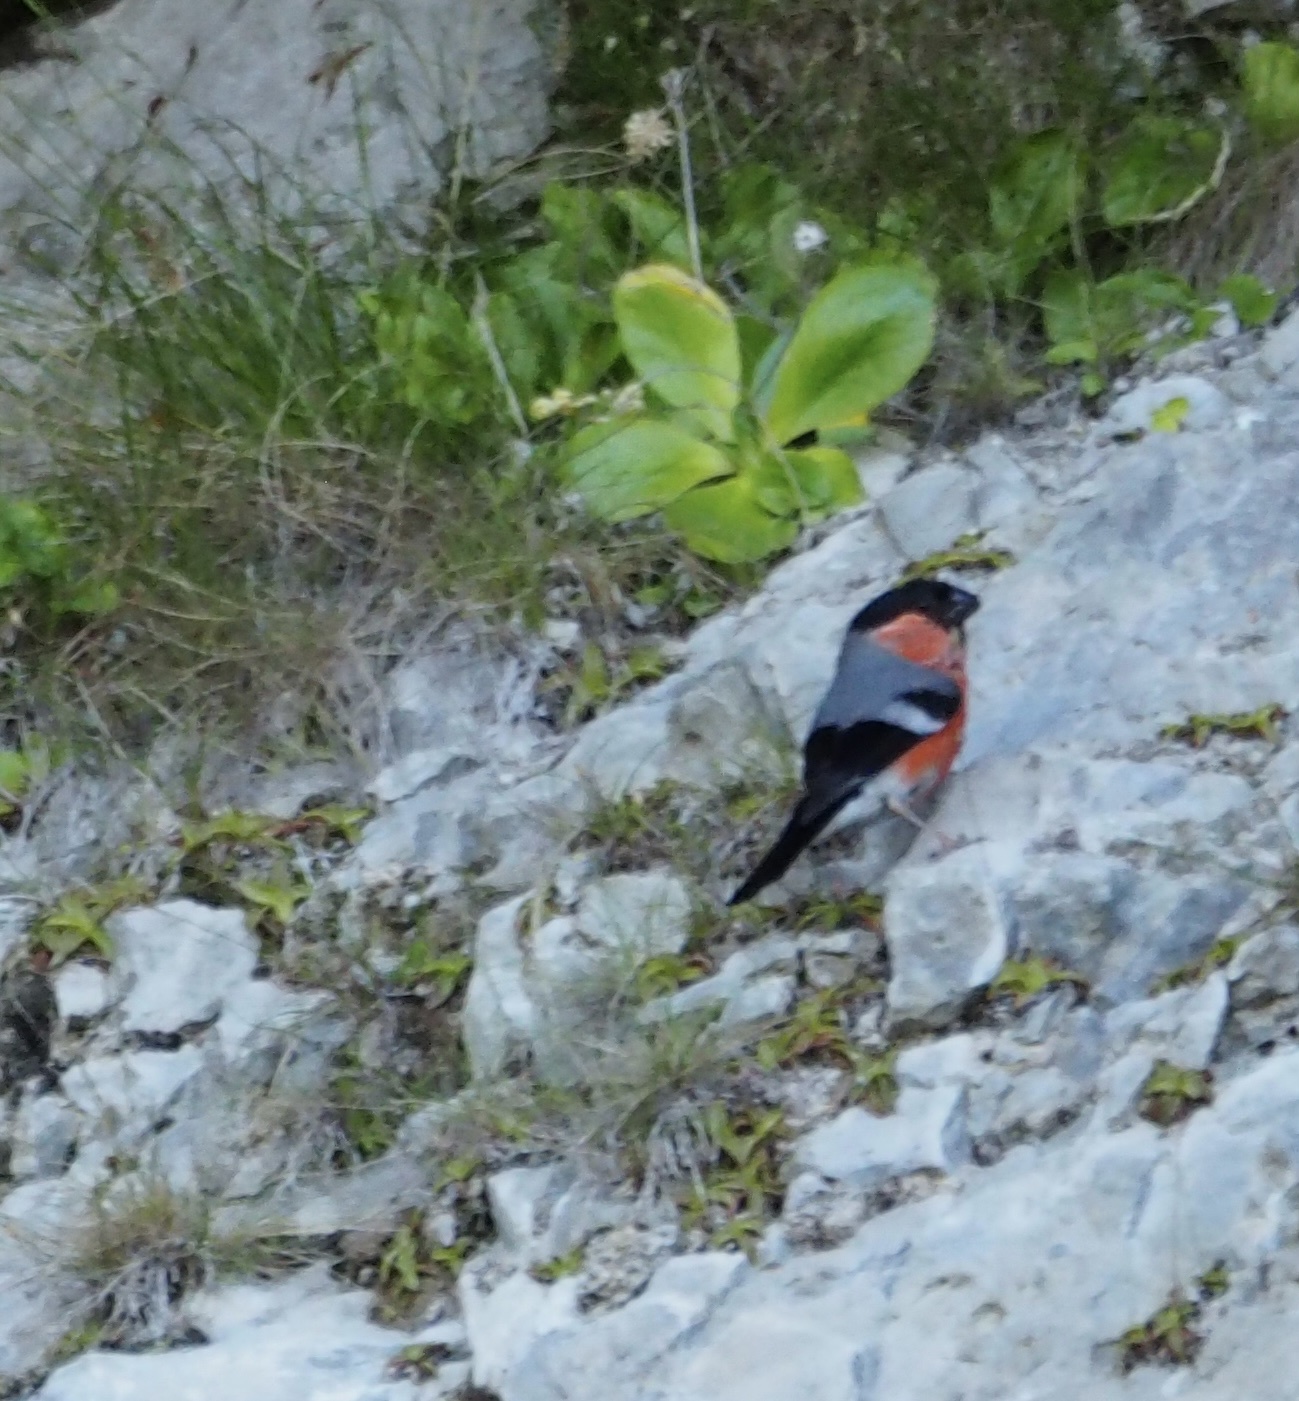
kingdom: Animalia
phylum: Chordata
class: Aves
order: Passeriformes
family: Fringillidae
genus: Pyrrhula
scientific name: Pyrrhula pyrrhula
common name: Eurasian bullfinch
